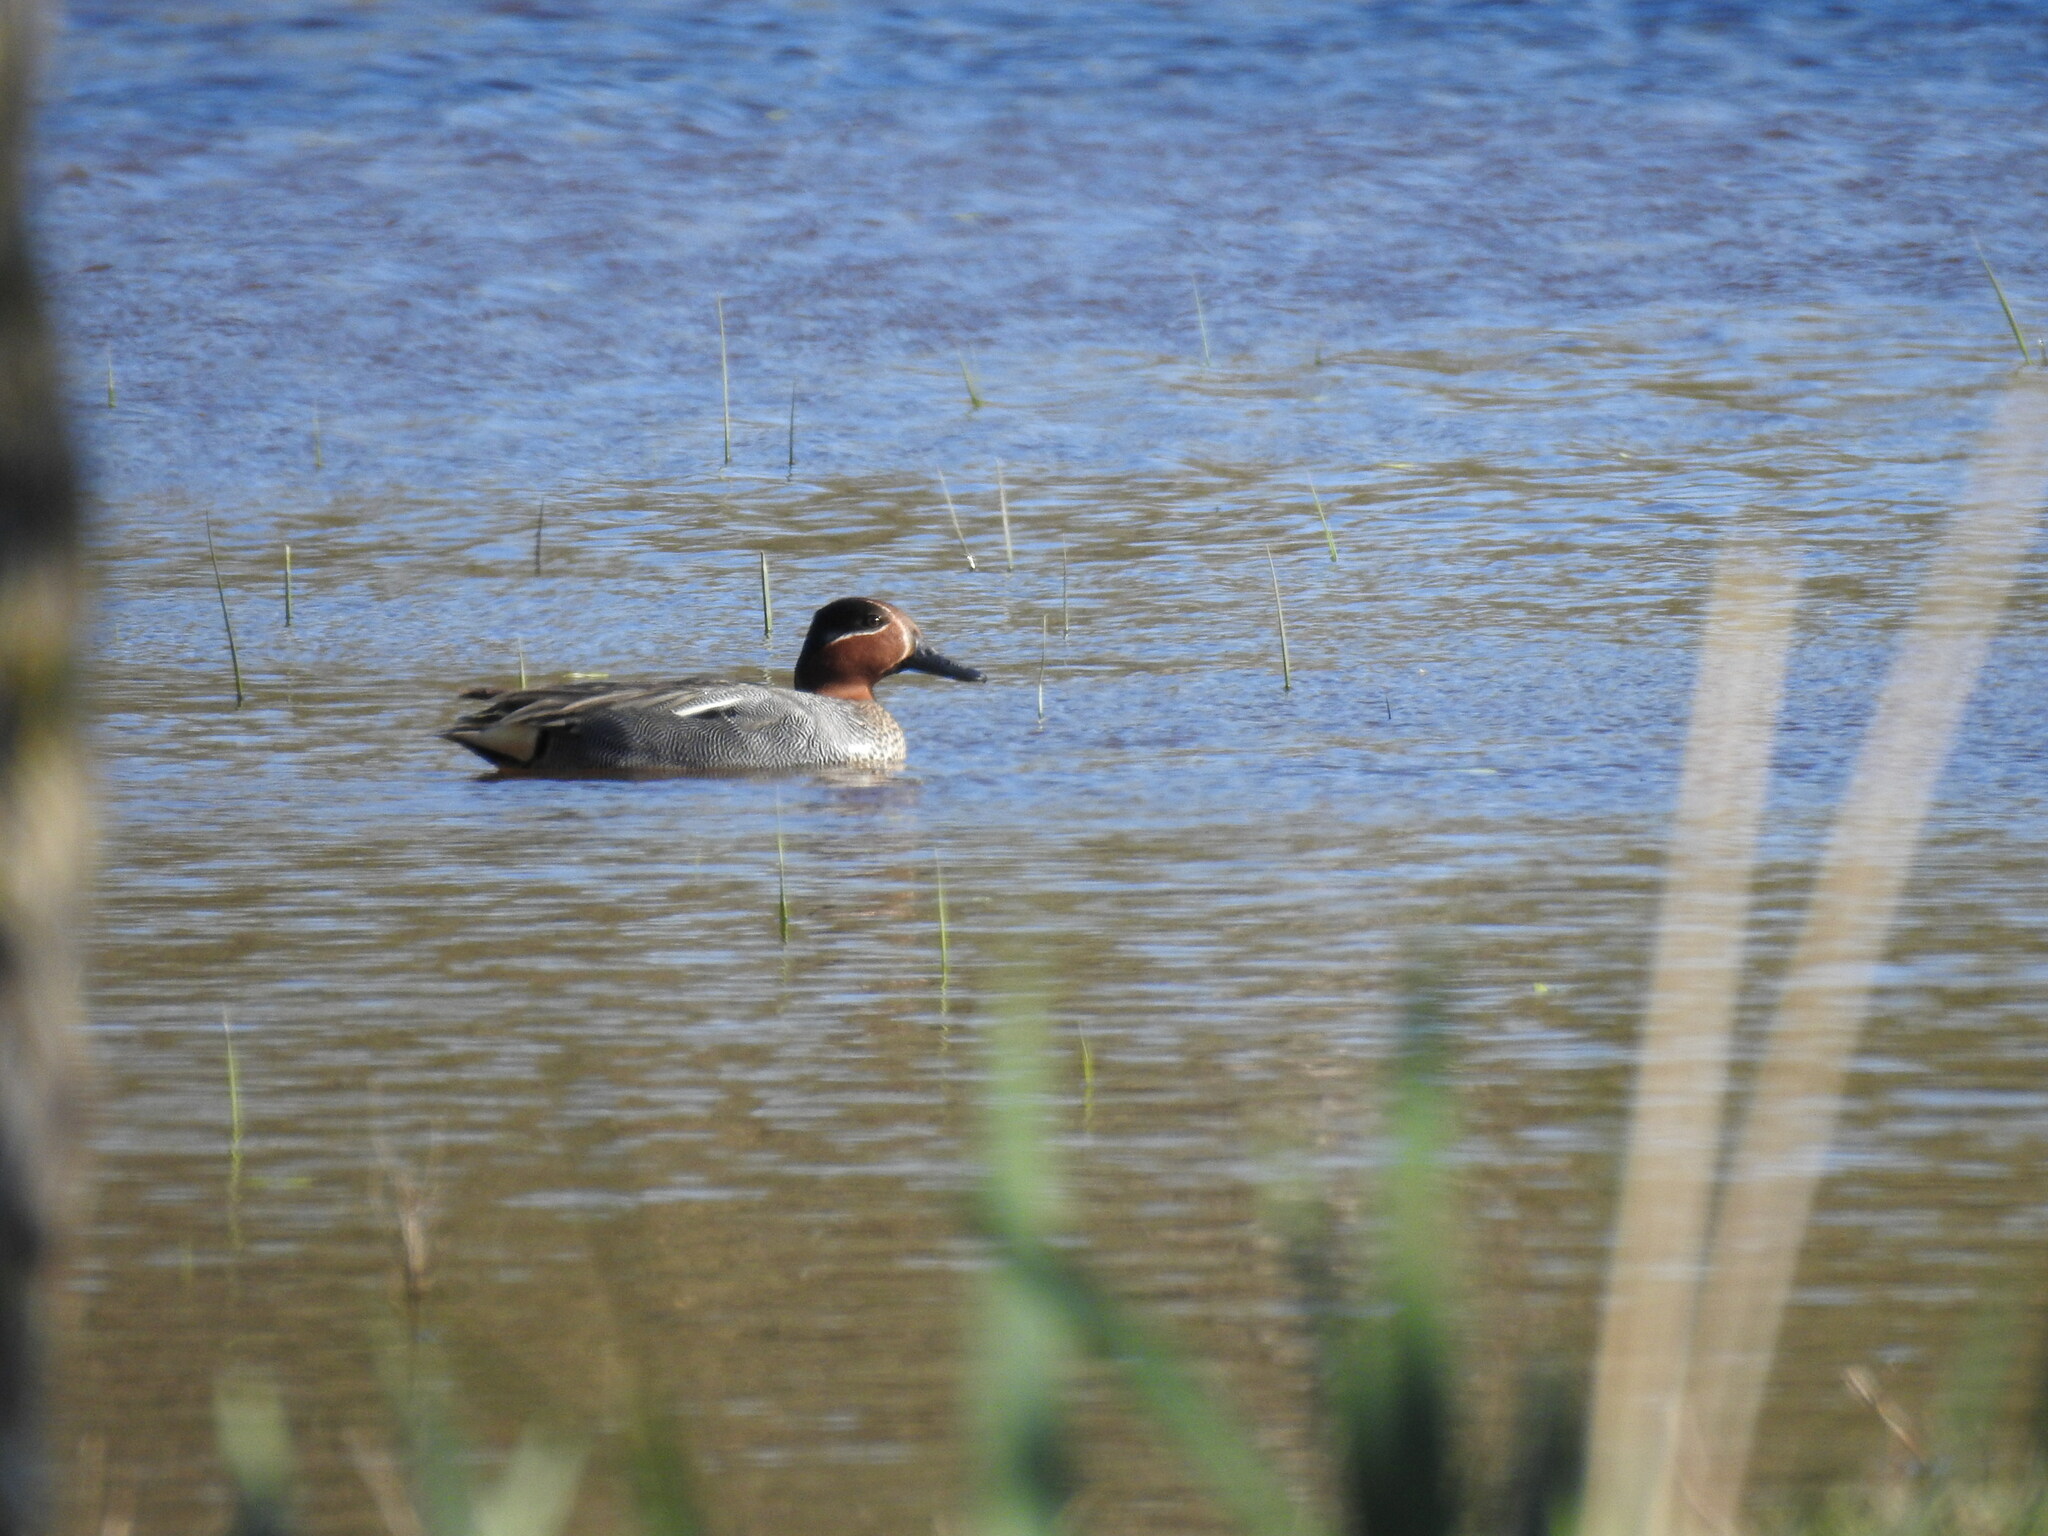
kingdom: Animalia
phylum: Chordata
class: Aves
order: Anseriformes
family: Anatidae
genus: Anas
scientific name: Anas crecca
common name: Eurasian teal
